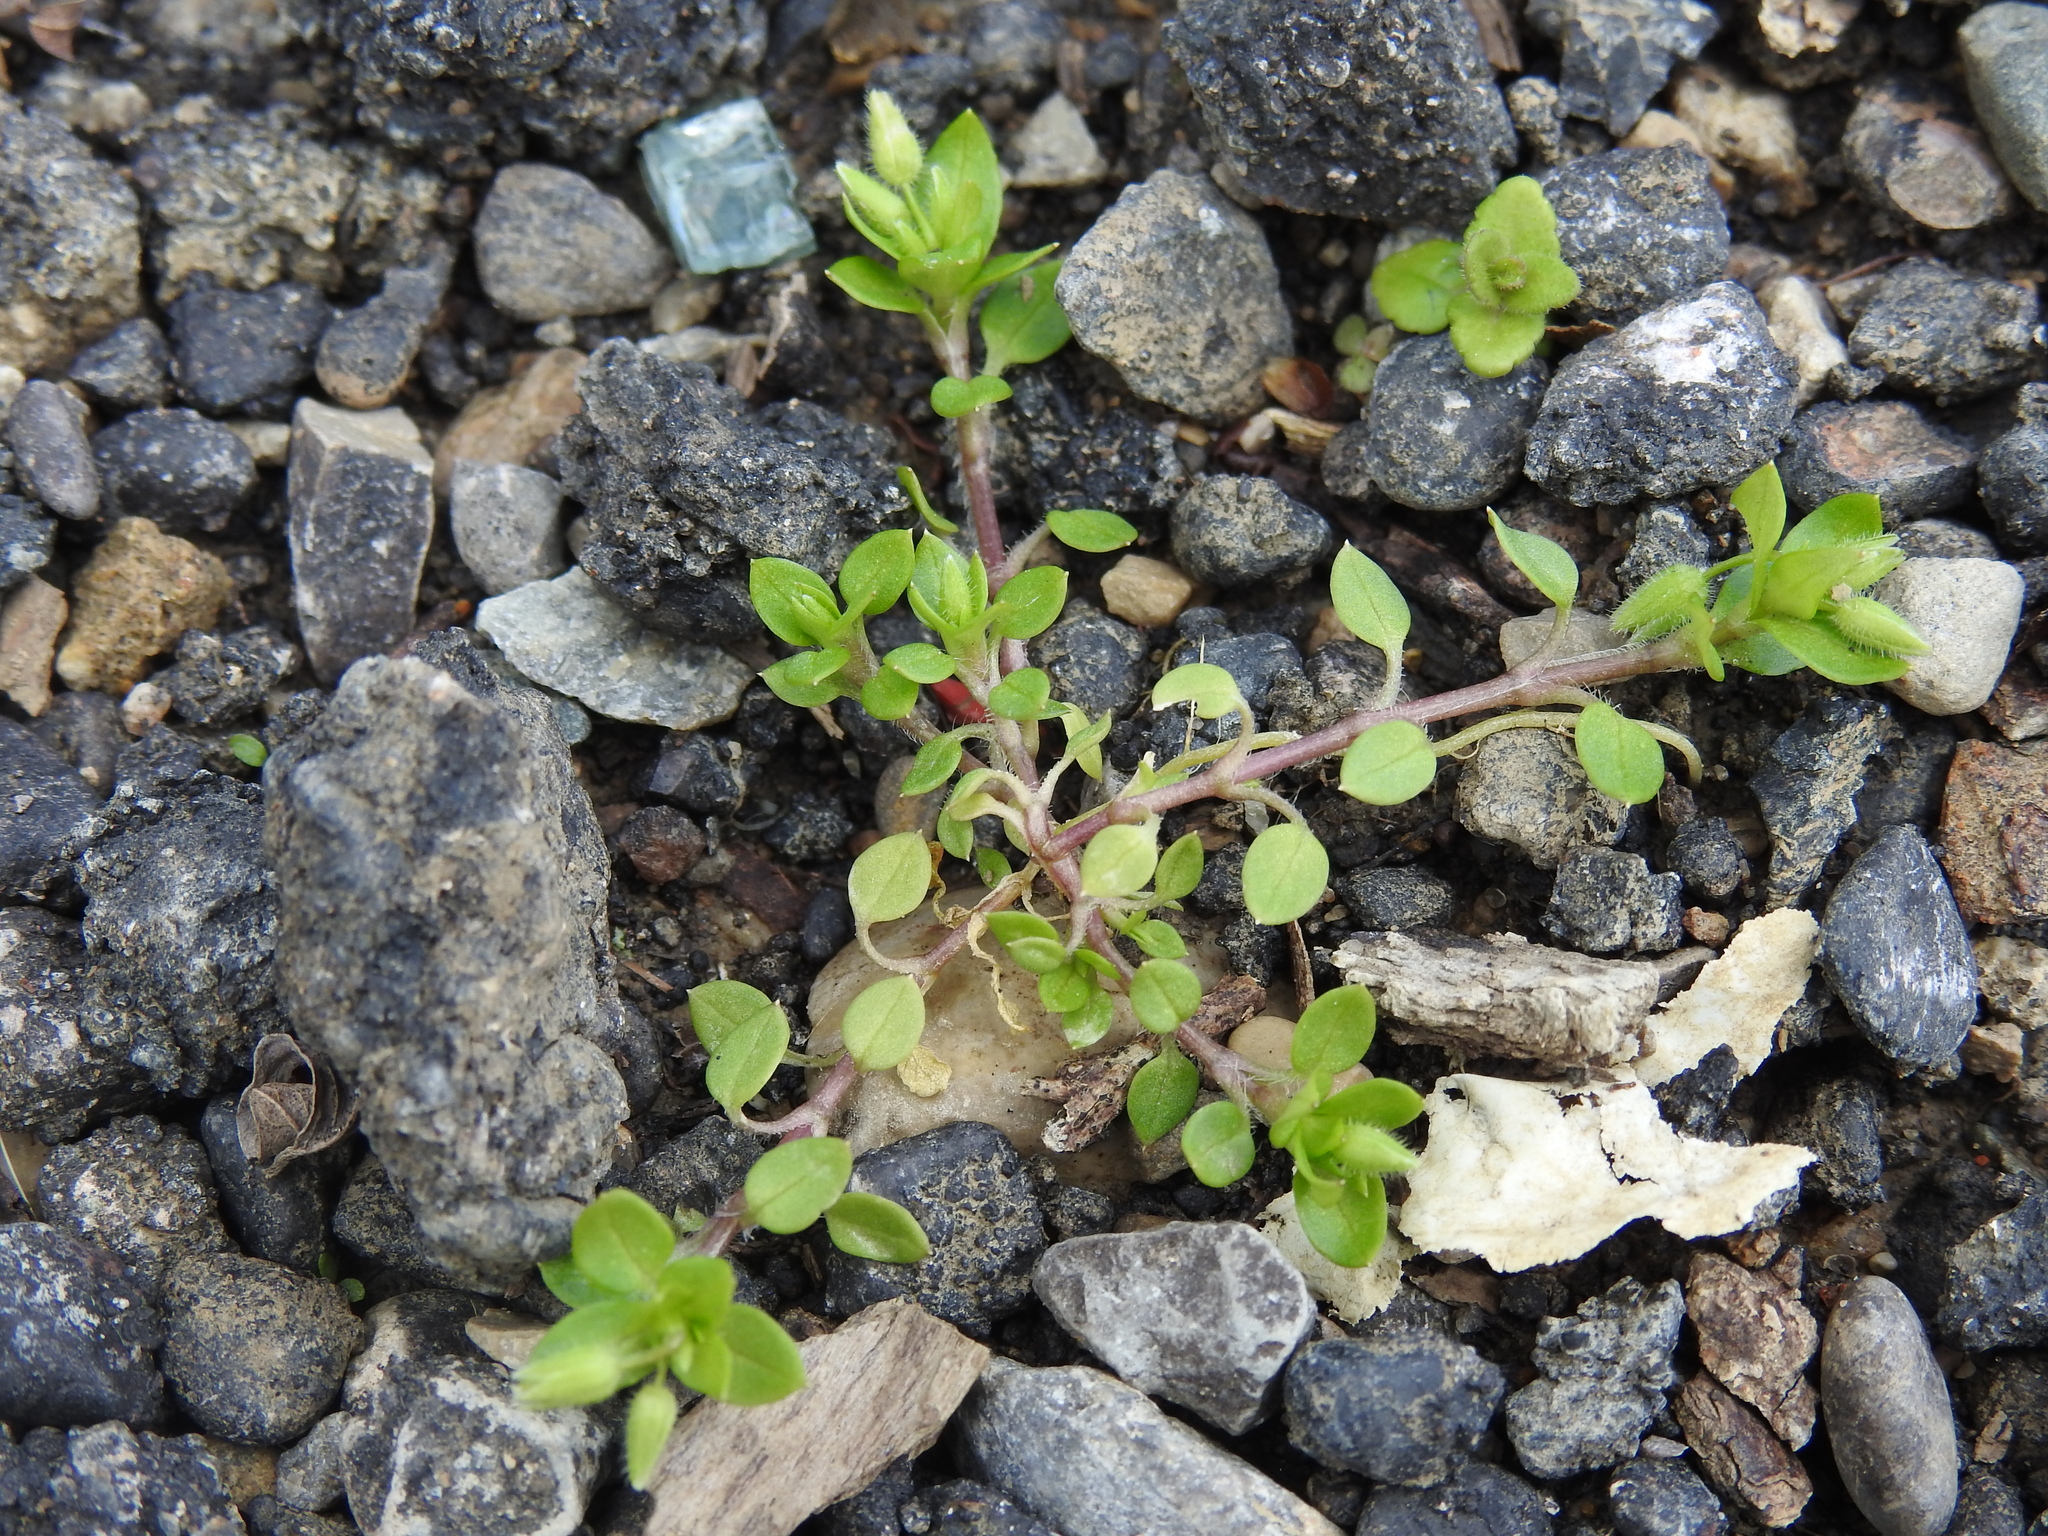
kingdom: Plantae
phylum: Tracheophyta
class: Magnoliopsida
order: Caryophyllales
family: Caryophyllaceae
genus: Stellaria
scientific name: Stellaria media
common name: Common chickweed
